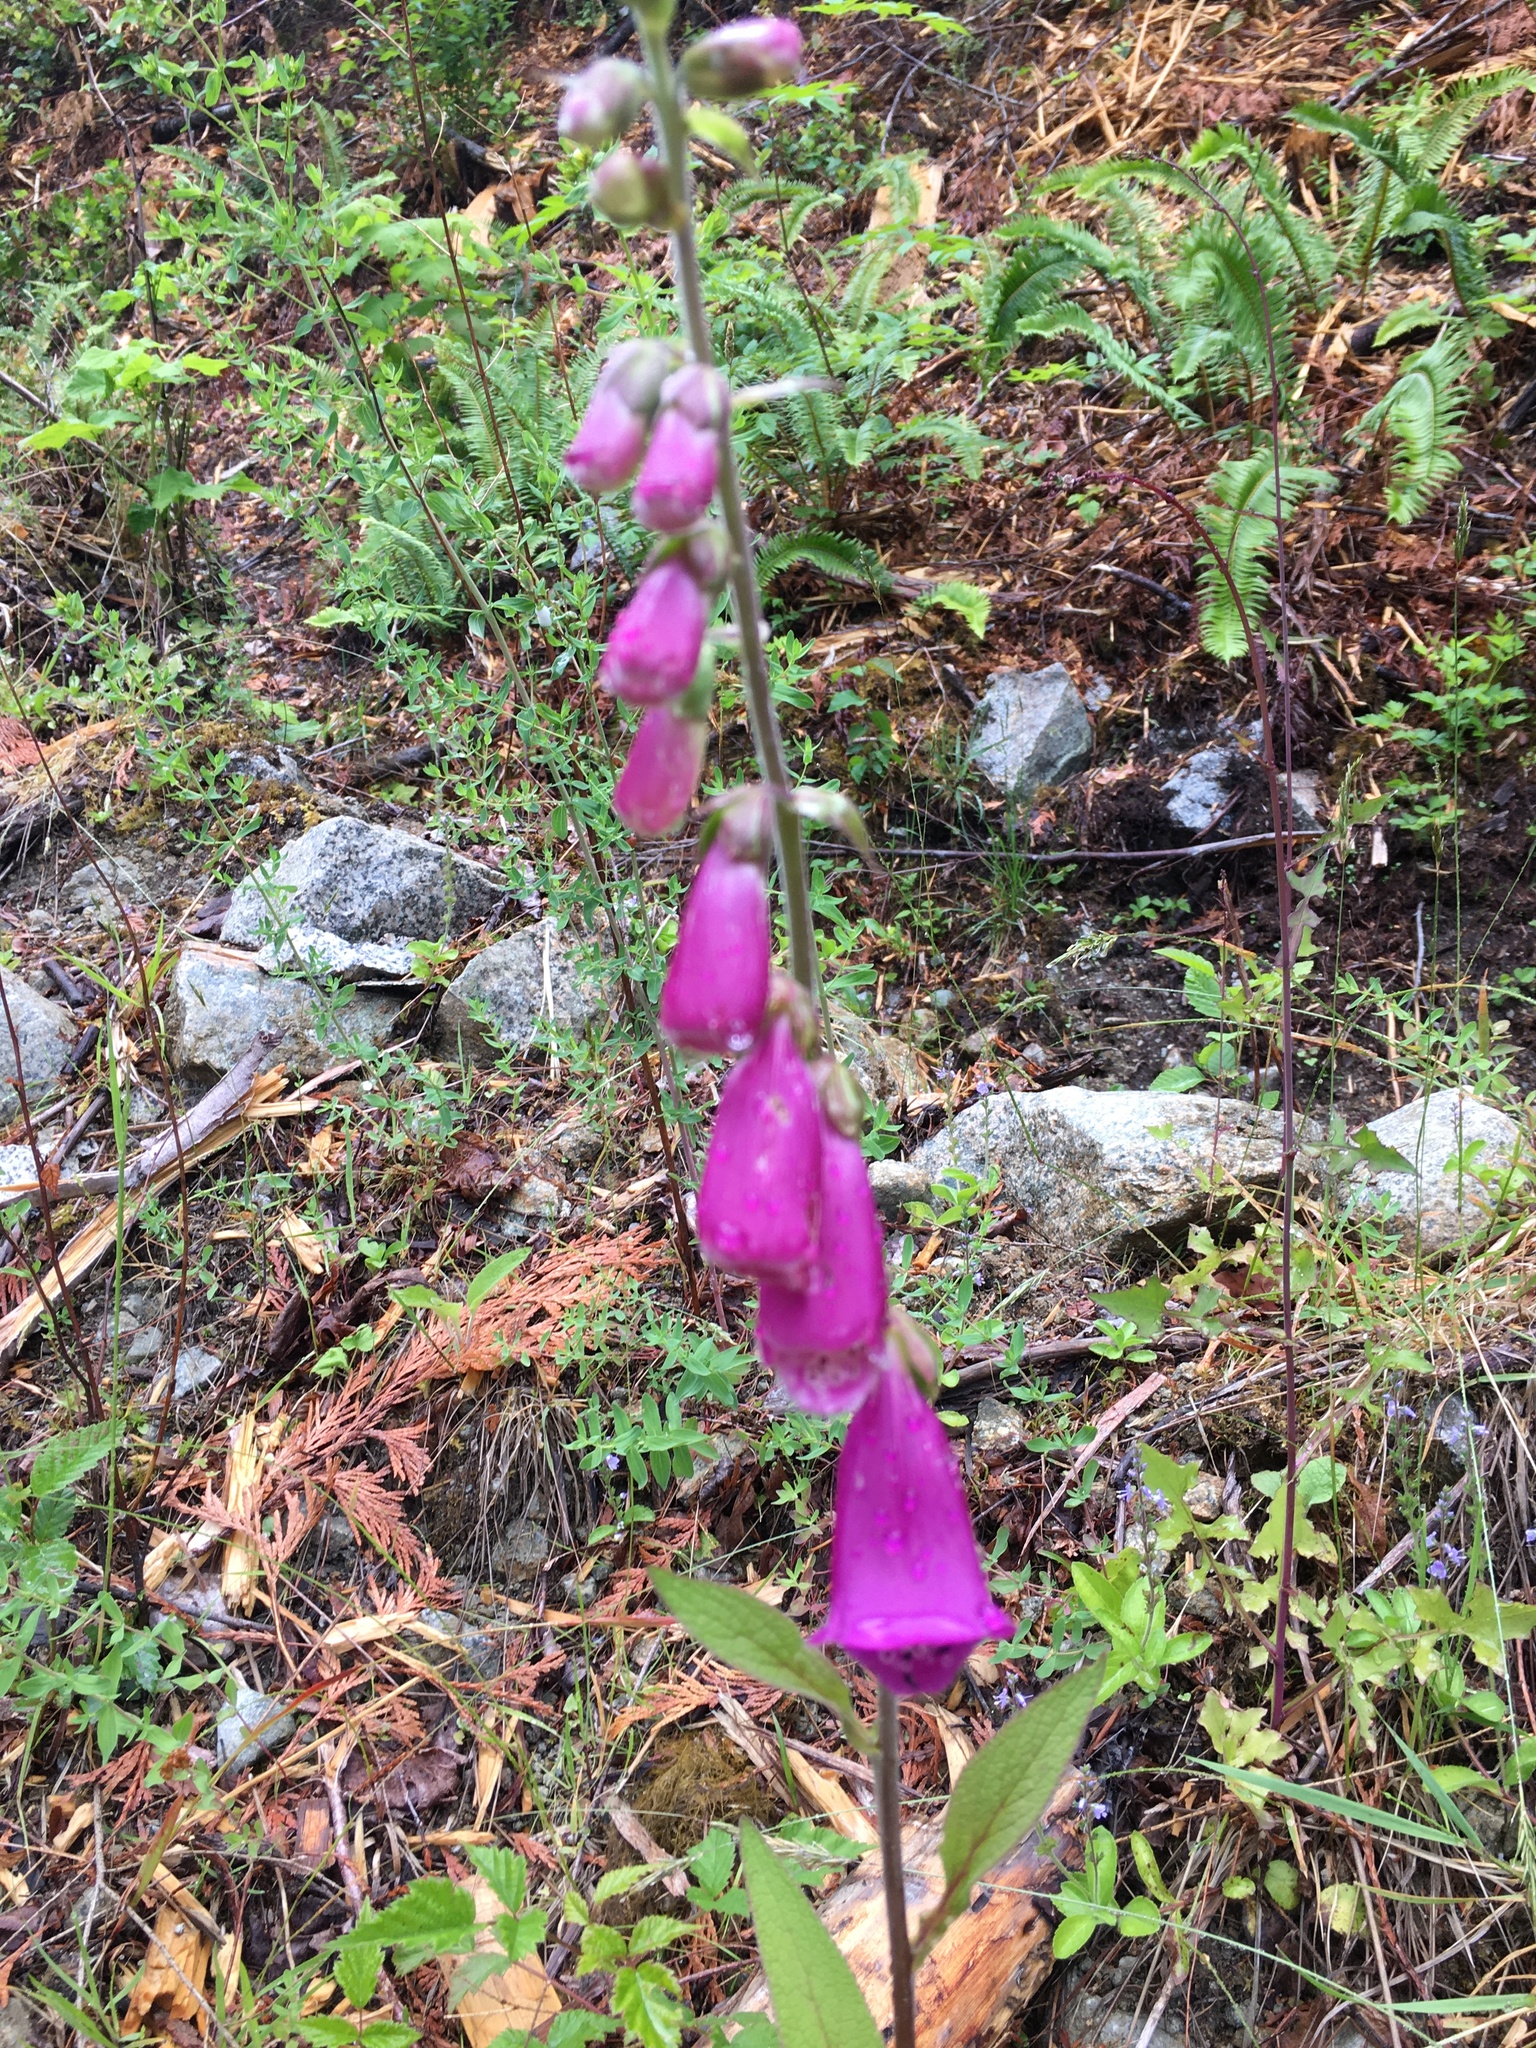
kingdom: Plantae
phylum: Tracheophyta
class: Magnoliopsida
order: Lamiales
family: Plantaginaceae
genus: Digitalis
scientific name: Digitalis purpurea
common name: Foxglove
